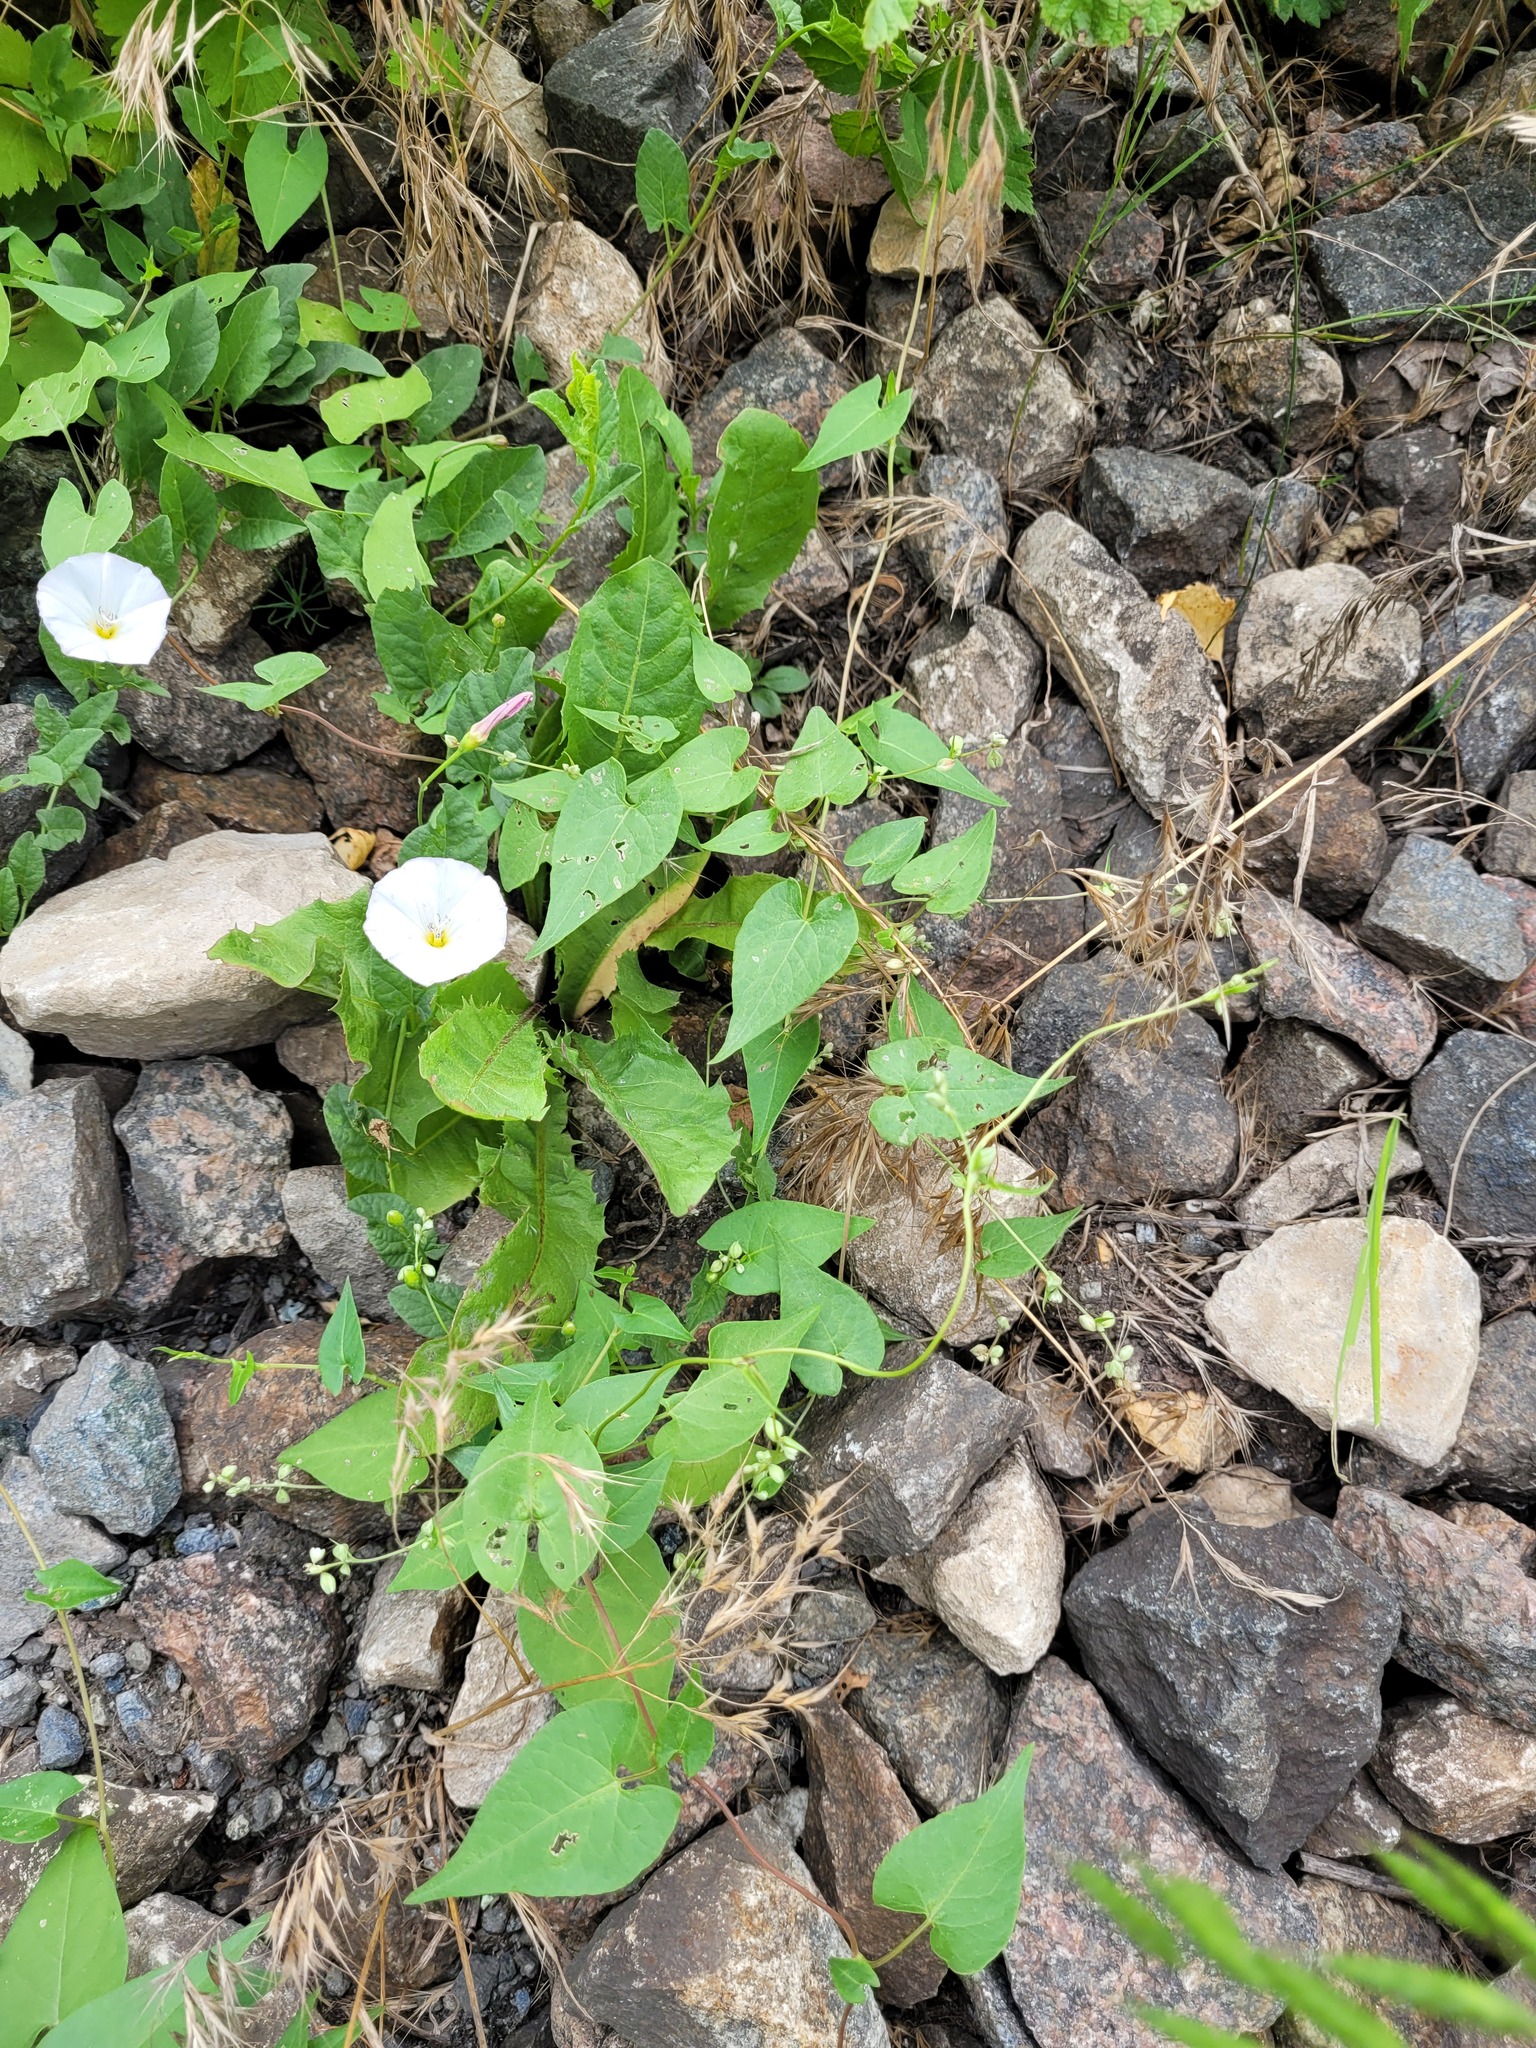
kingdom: Plantae
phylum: Tracheophyta
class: Magnoliopsida
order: Caryophyllales
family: Polygonaceae
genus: Fallopia
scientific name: Fallopia convolvulus
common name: Black bindweed
